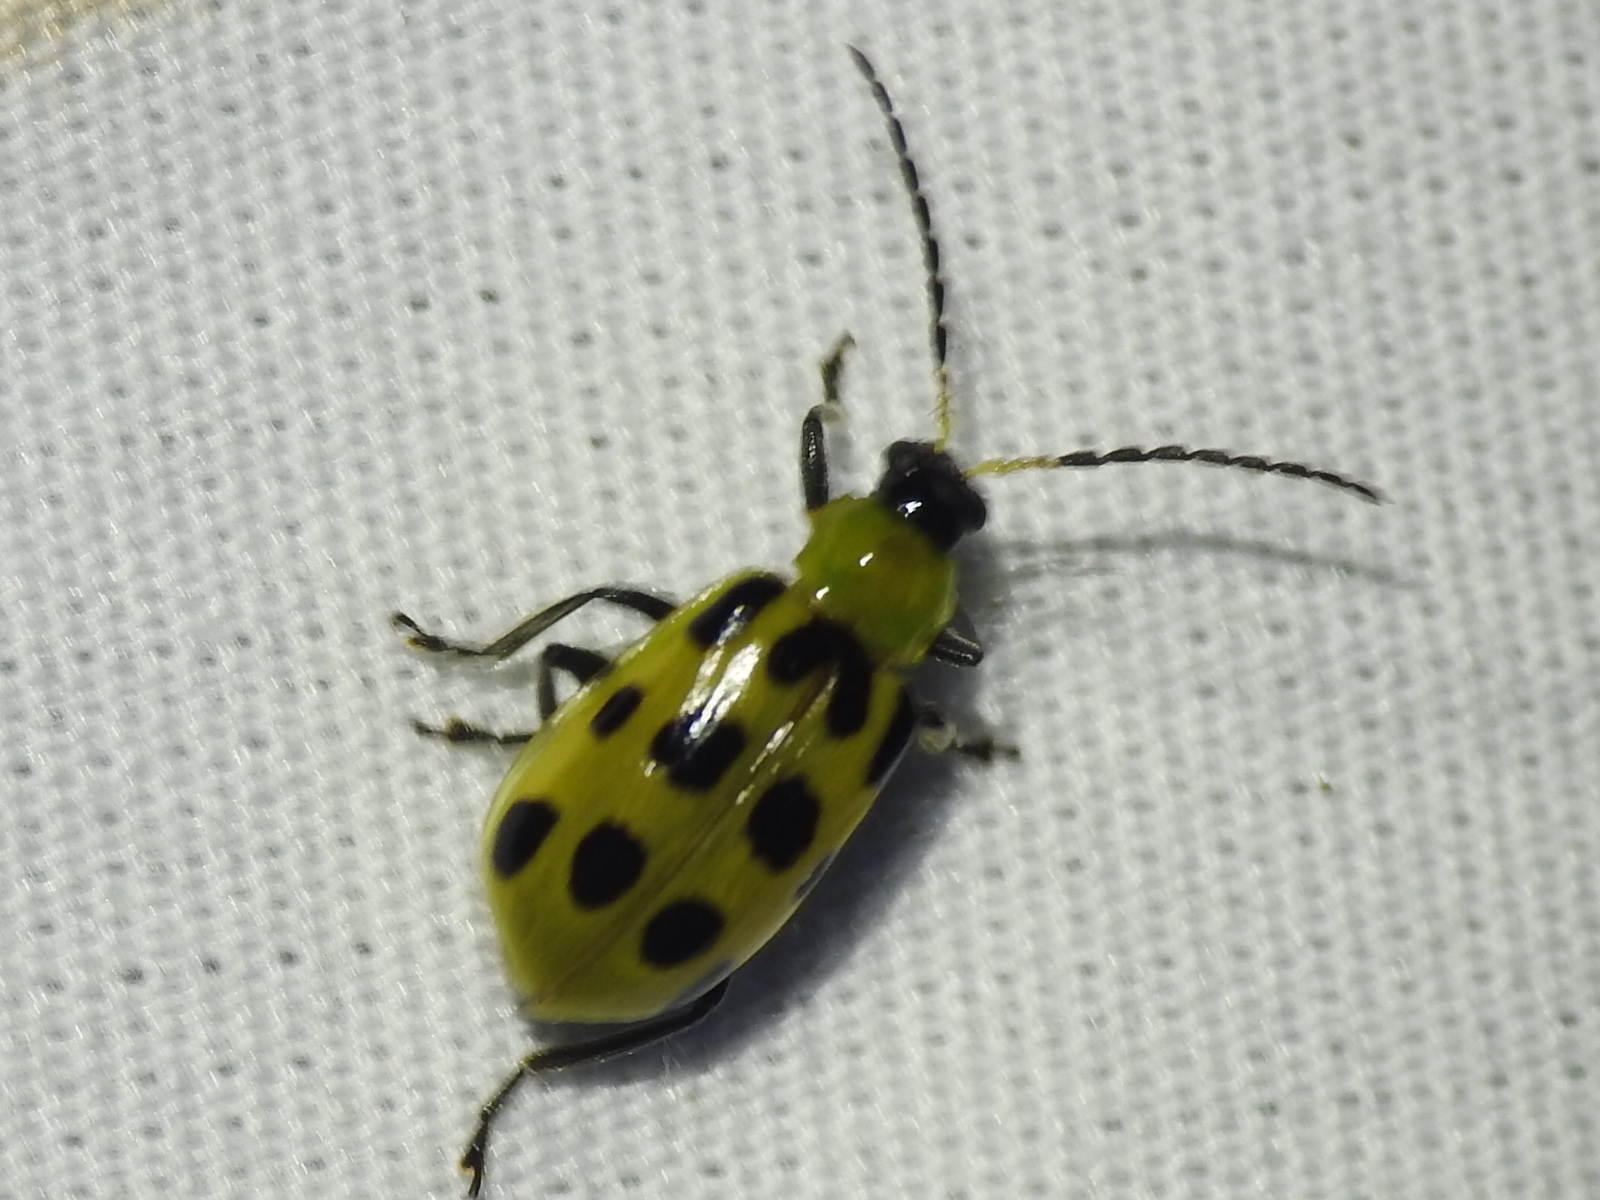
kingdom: Animalia
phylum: Arthropoda
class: Insecta
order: Coleoptera
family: Chrysomelidae
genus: Diabrotica
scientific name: Diabrotica undecimpunctata
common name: Spotted cucumber beetle
